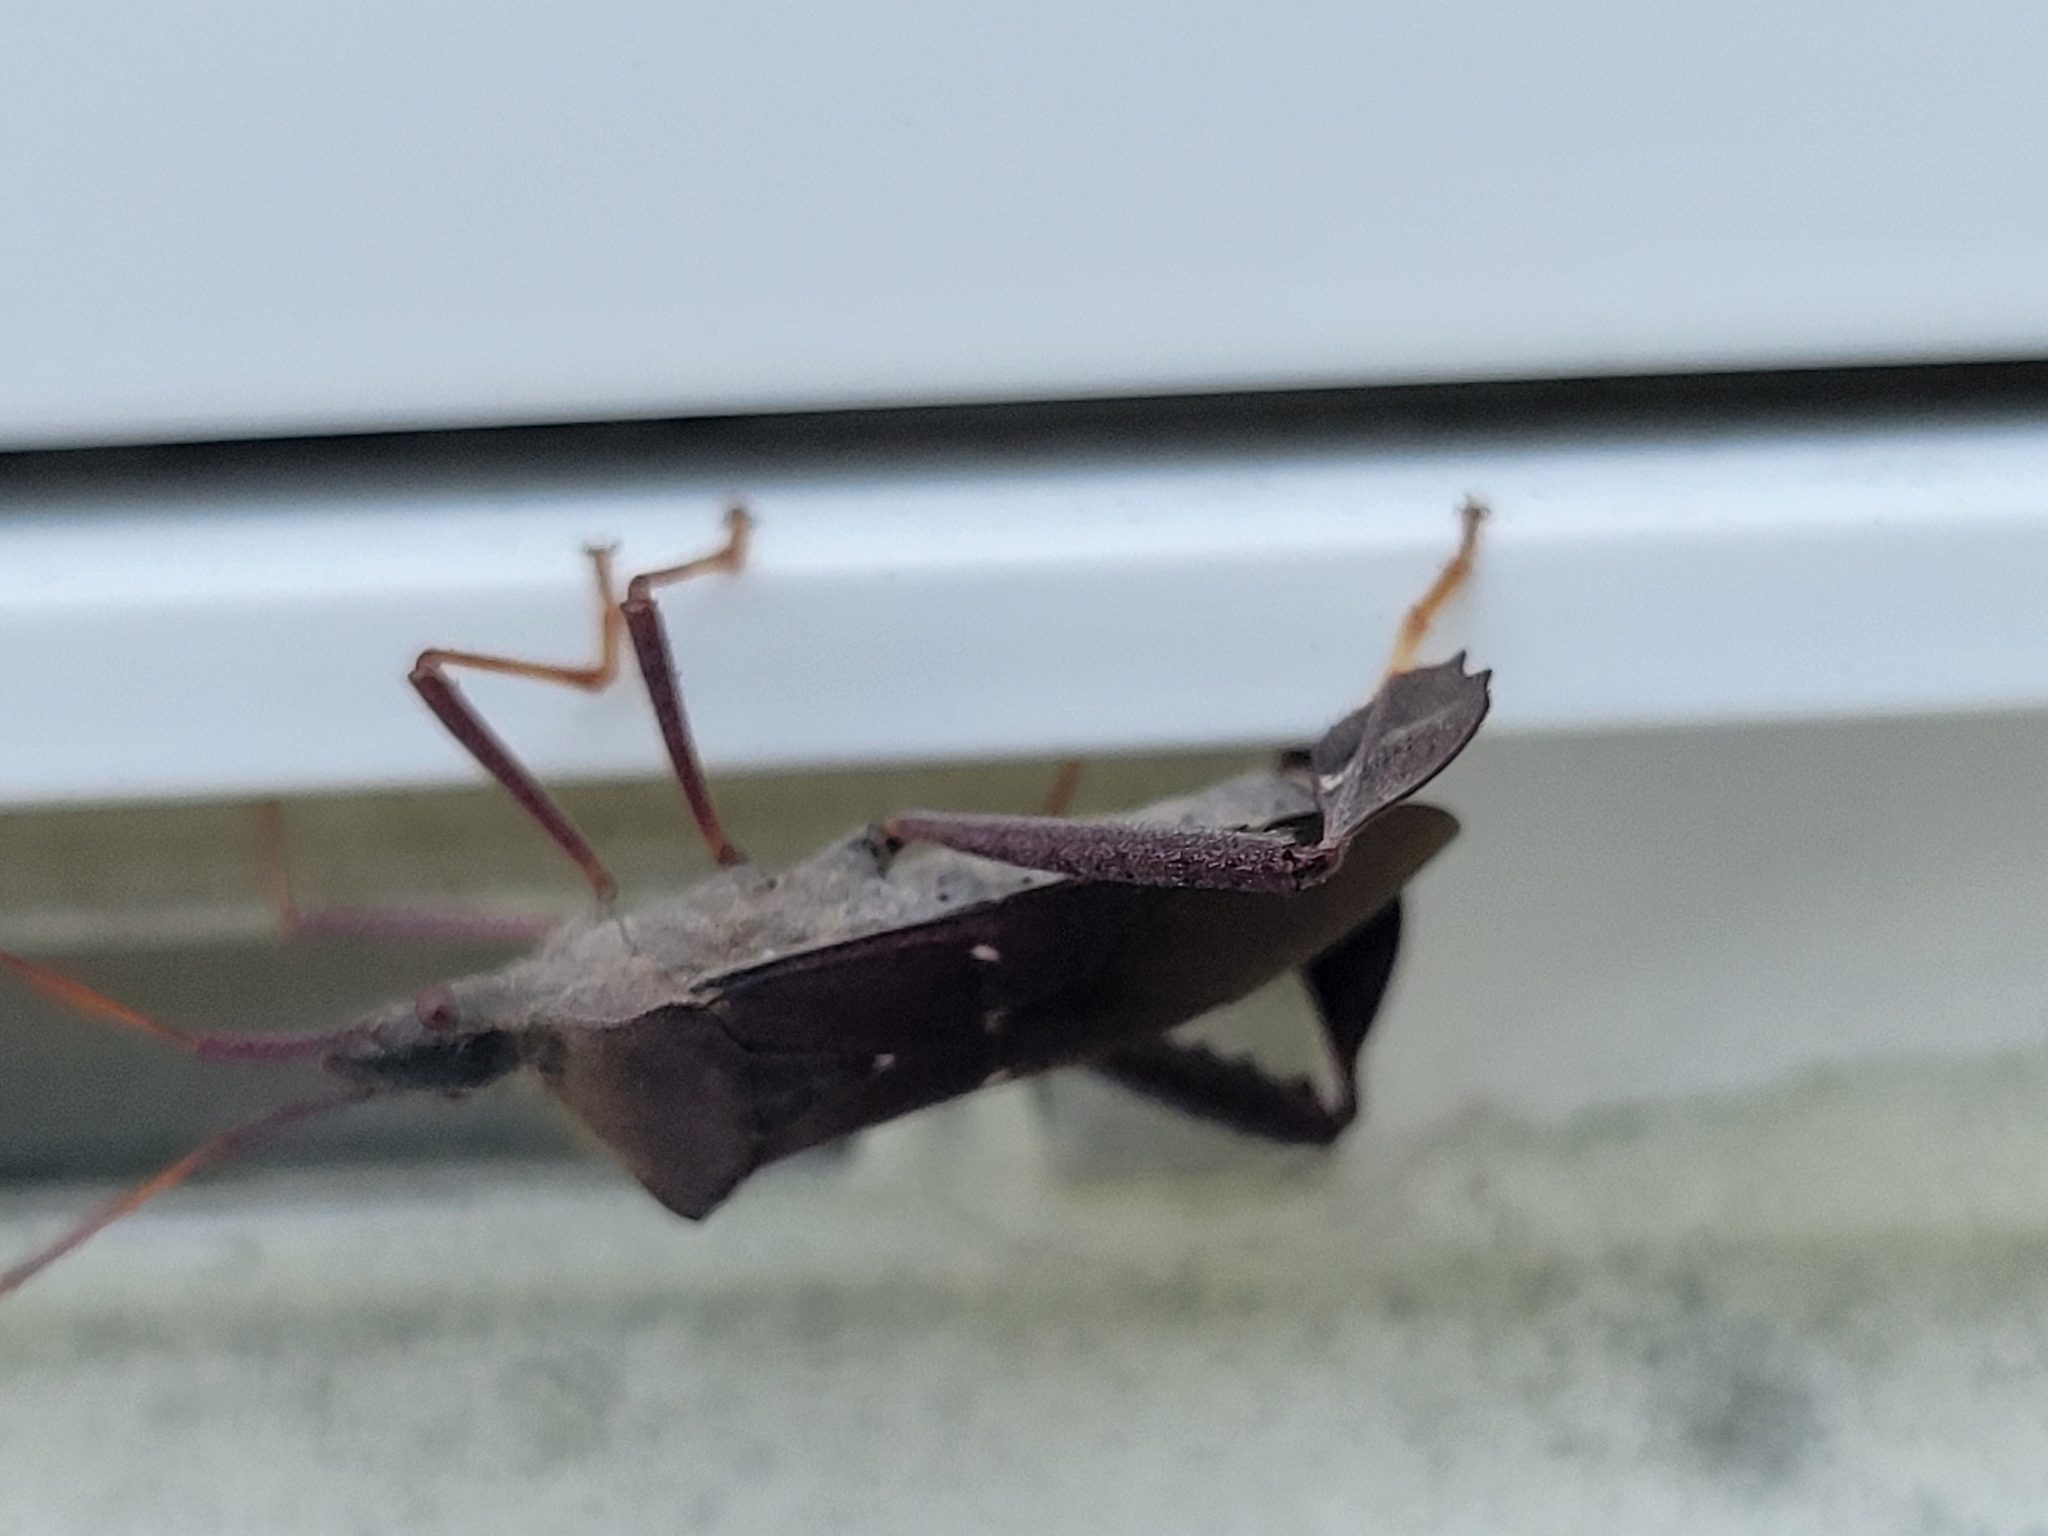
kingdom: Animalia
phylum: Arthropoda
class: Insecta
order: Hemiptera
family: Coreidae
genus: Leptoglossus
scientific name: Leptoglossus oppositus
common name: Northern leaf-footed bug
